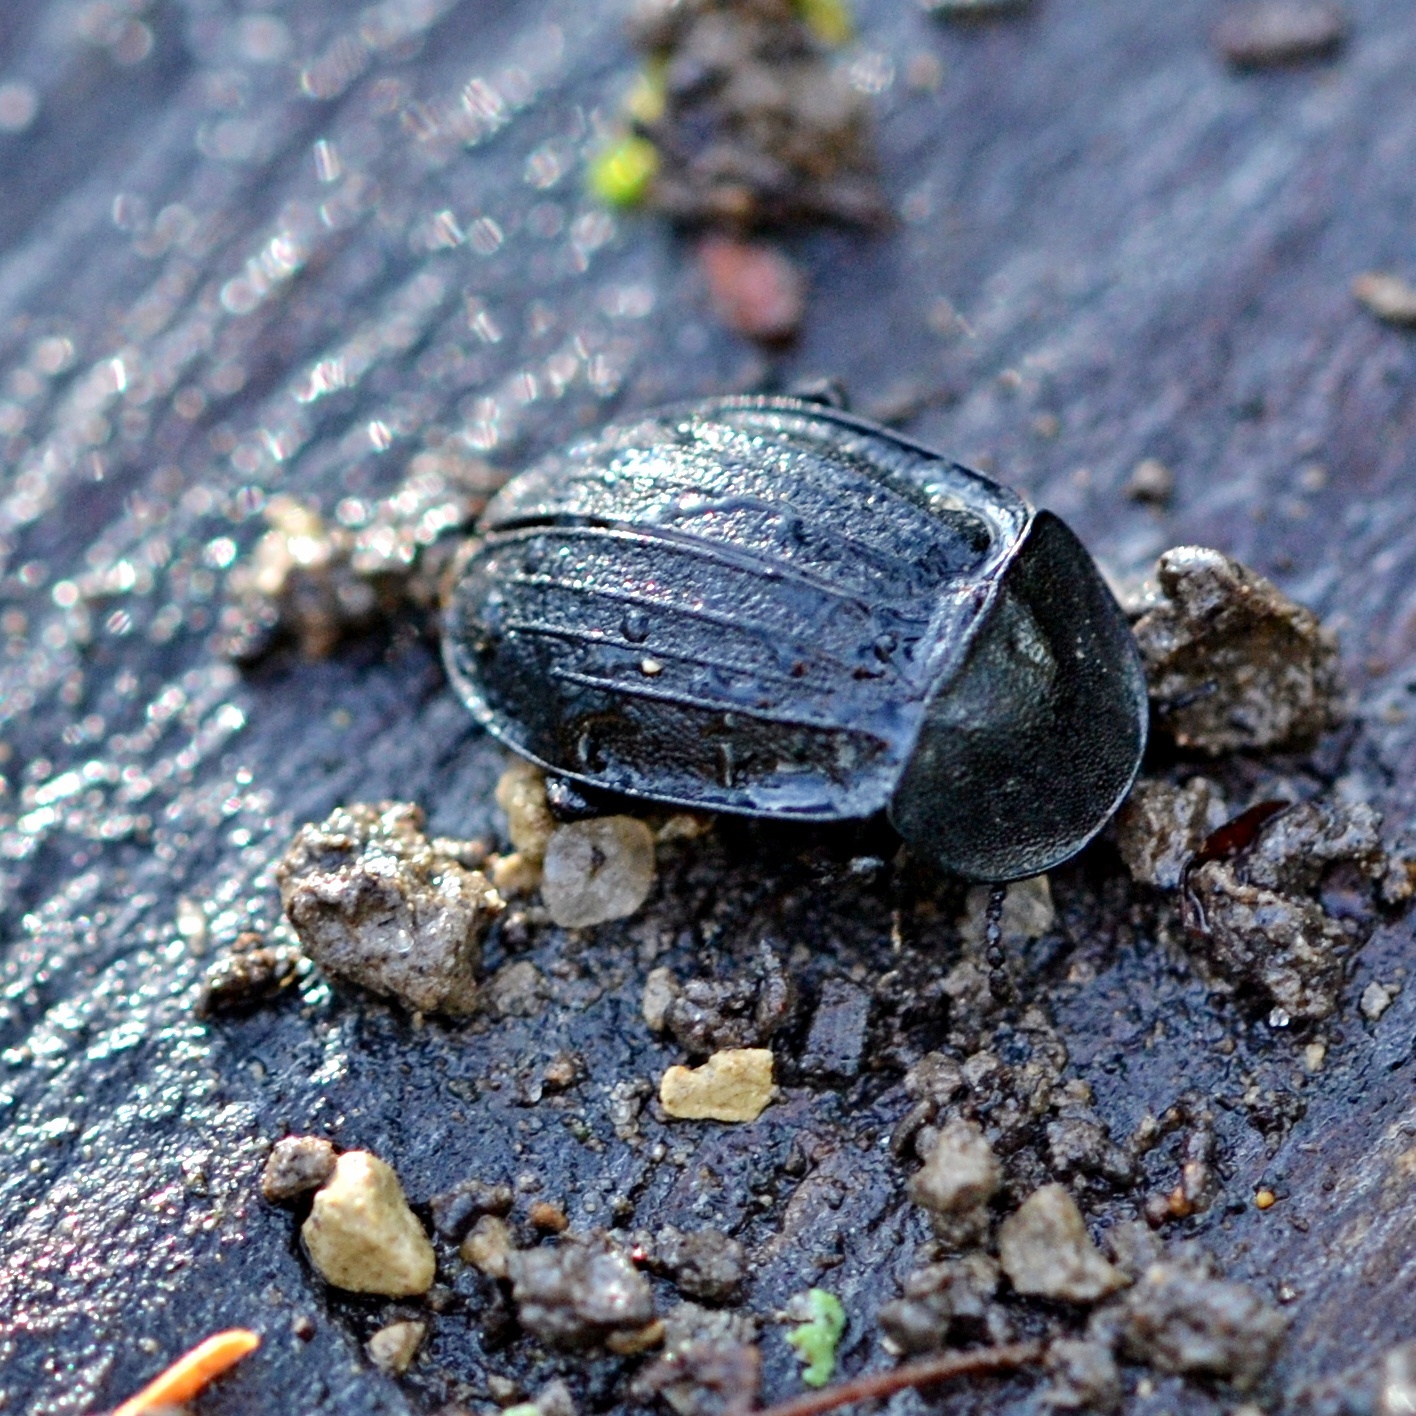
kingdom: Animalia
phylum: Arthropoda
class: Insecta
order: Coleoptera
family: Staphylinidae
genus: Silpha
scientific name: Silpha atrata
